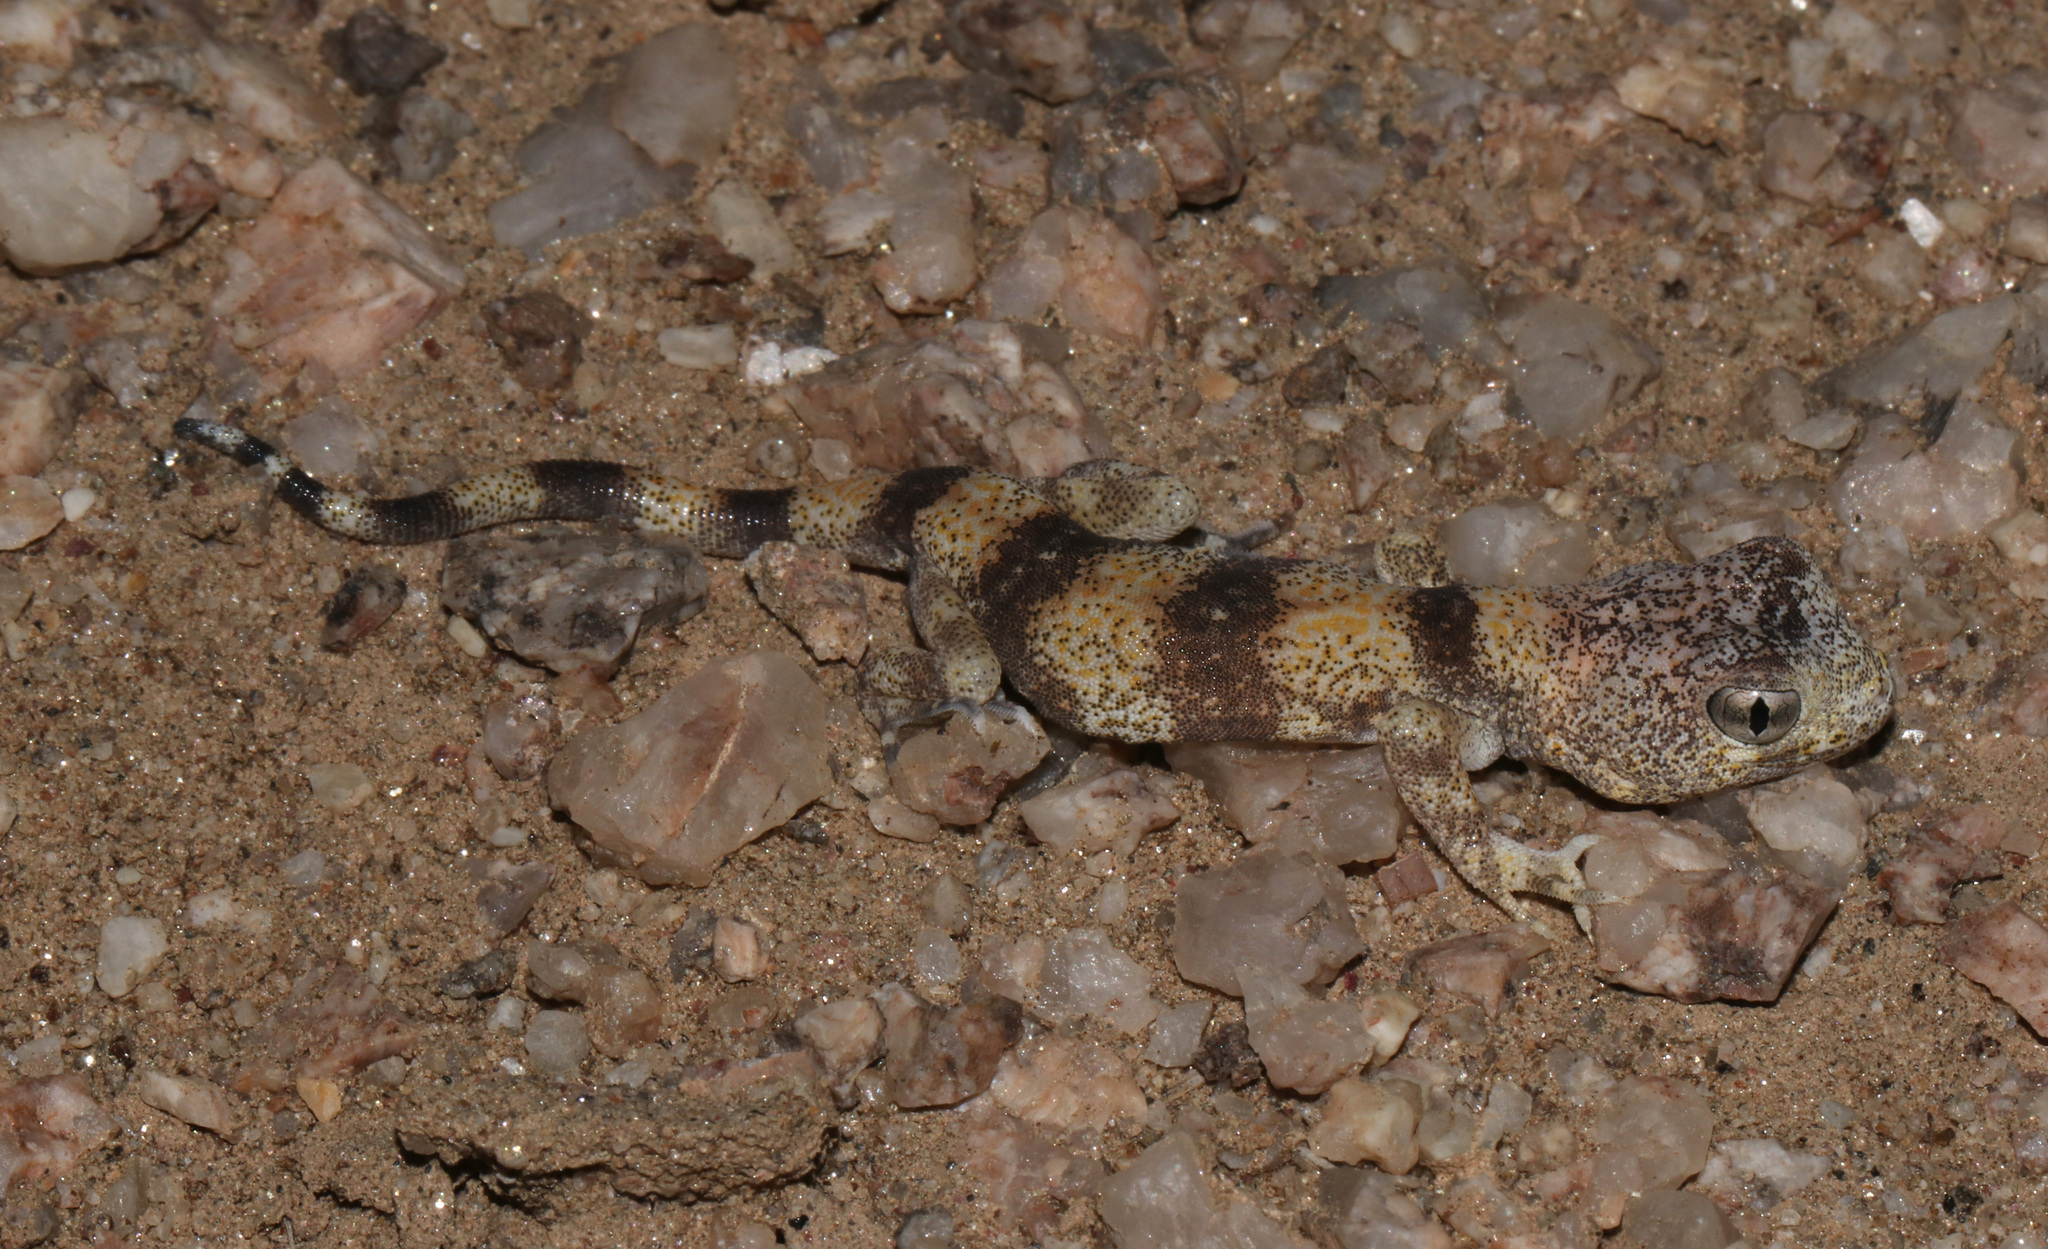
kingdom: Animalia
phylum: Chordata
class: Squamata
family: Gekkonidae
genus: Ptenopus
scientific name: Ptenopus carpi
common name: Namib chirping gecko
